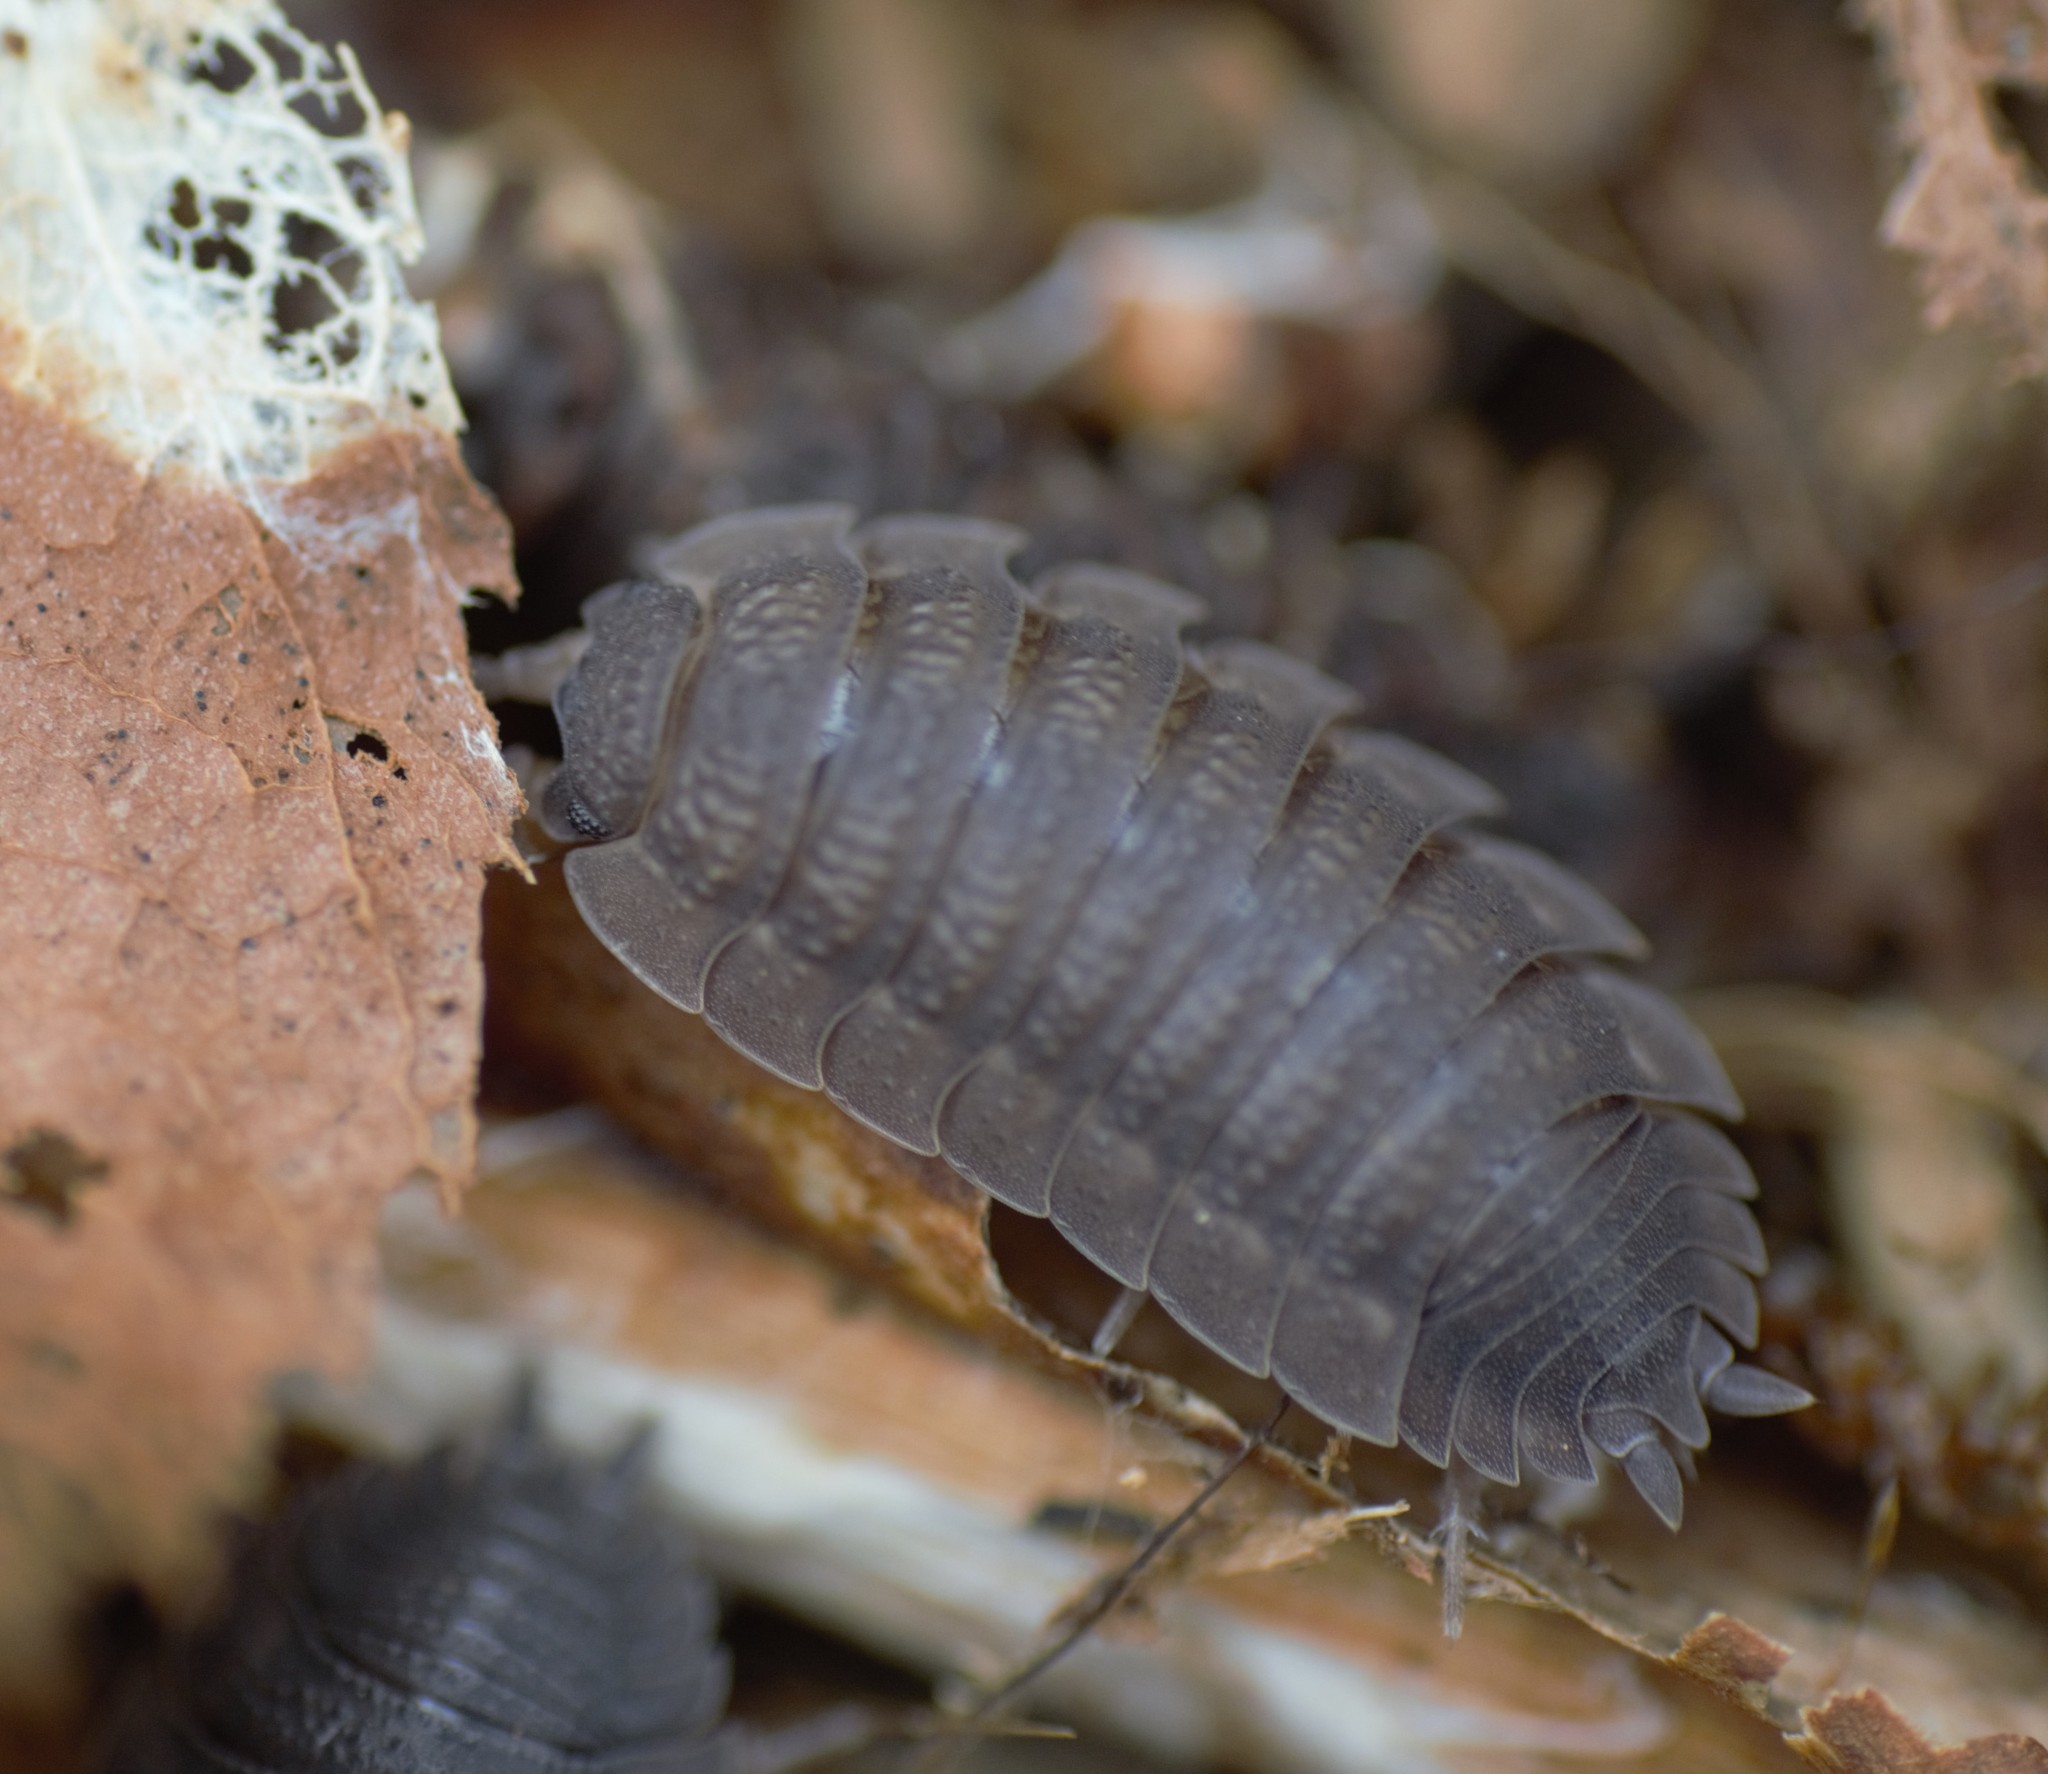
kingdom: Animalia
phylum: Arthropoda
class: Malacostraca
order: Isopoda
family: Porcellionidae
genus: Porcellio
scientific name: Porcellio scaber
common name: Common rough woodlouse
